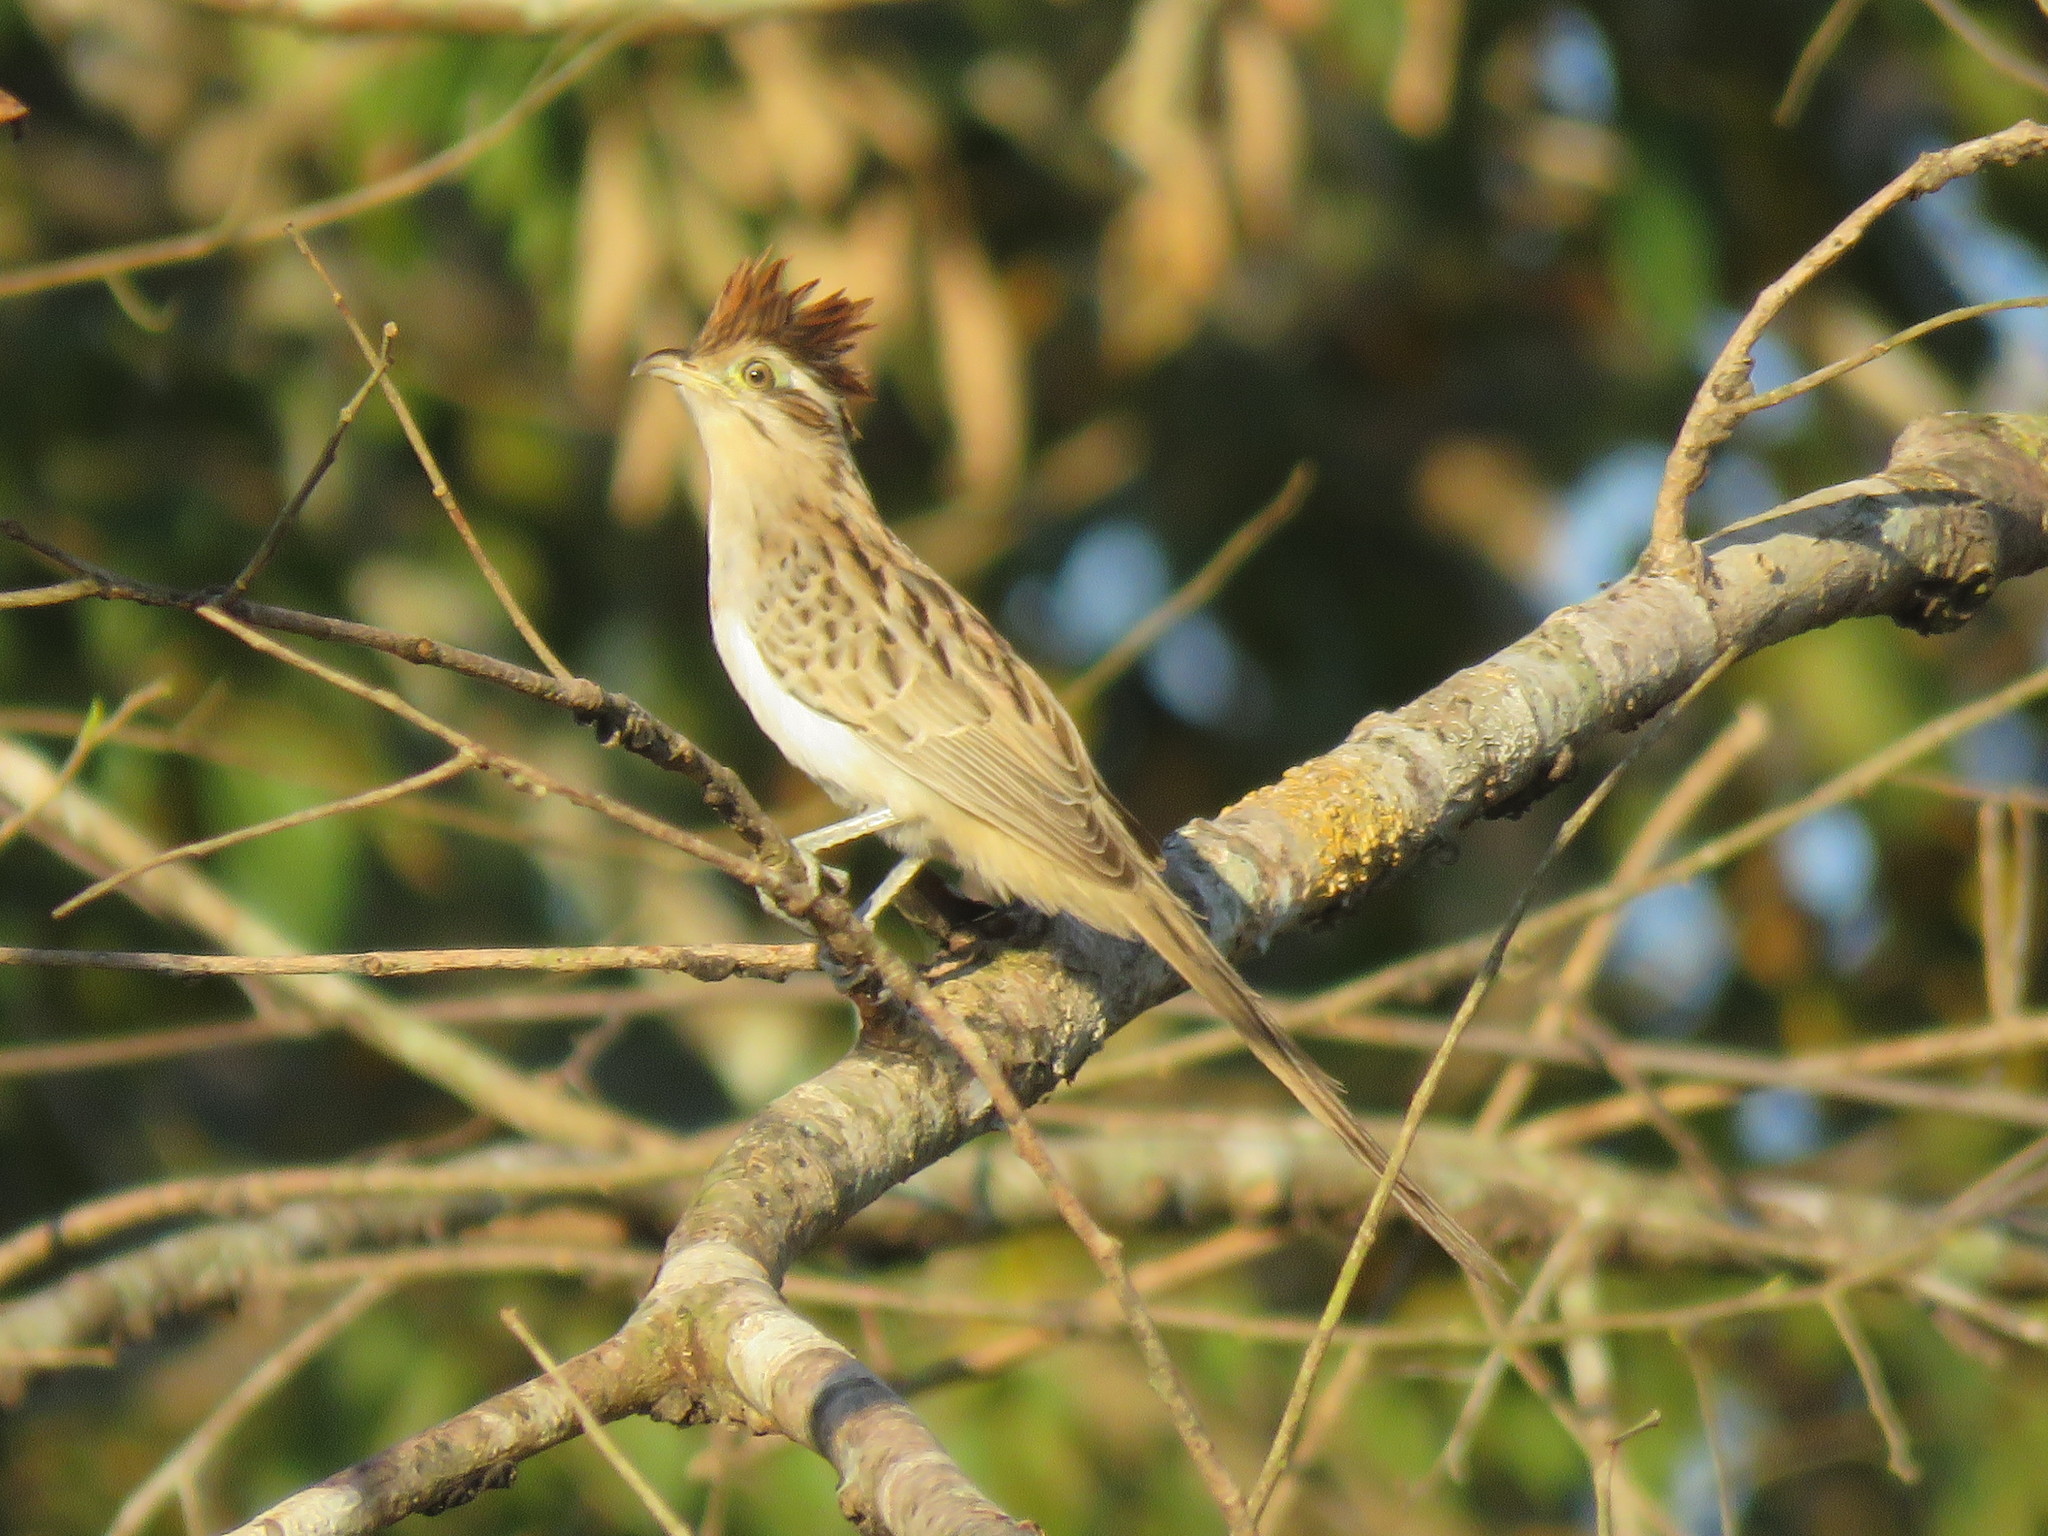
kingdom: Animalia
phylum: Chordata
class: Aves
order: Cuculiformes
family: Cuculidae
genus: Tapera
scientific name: Tapera naevia
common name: Striped cuckoo
